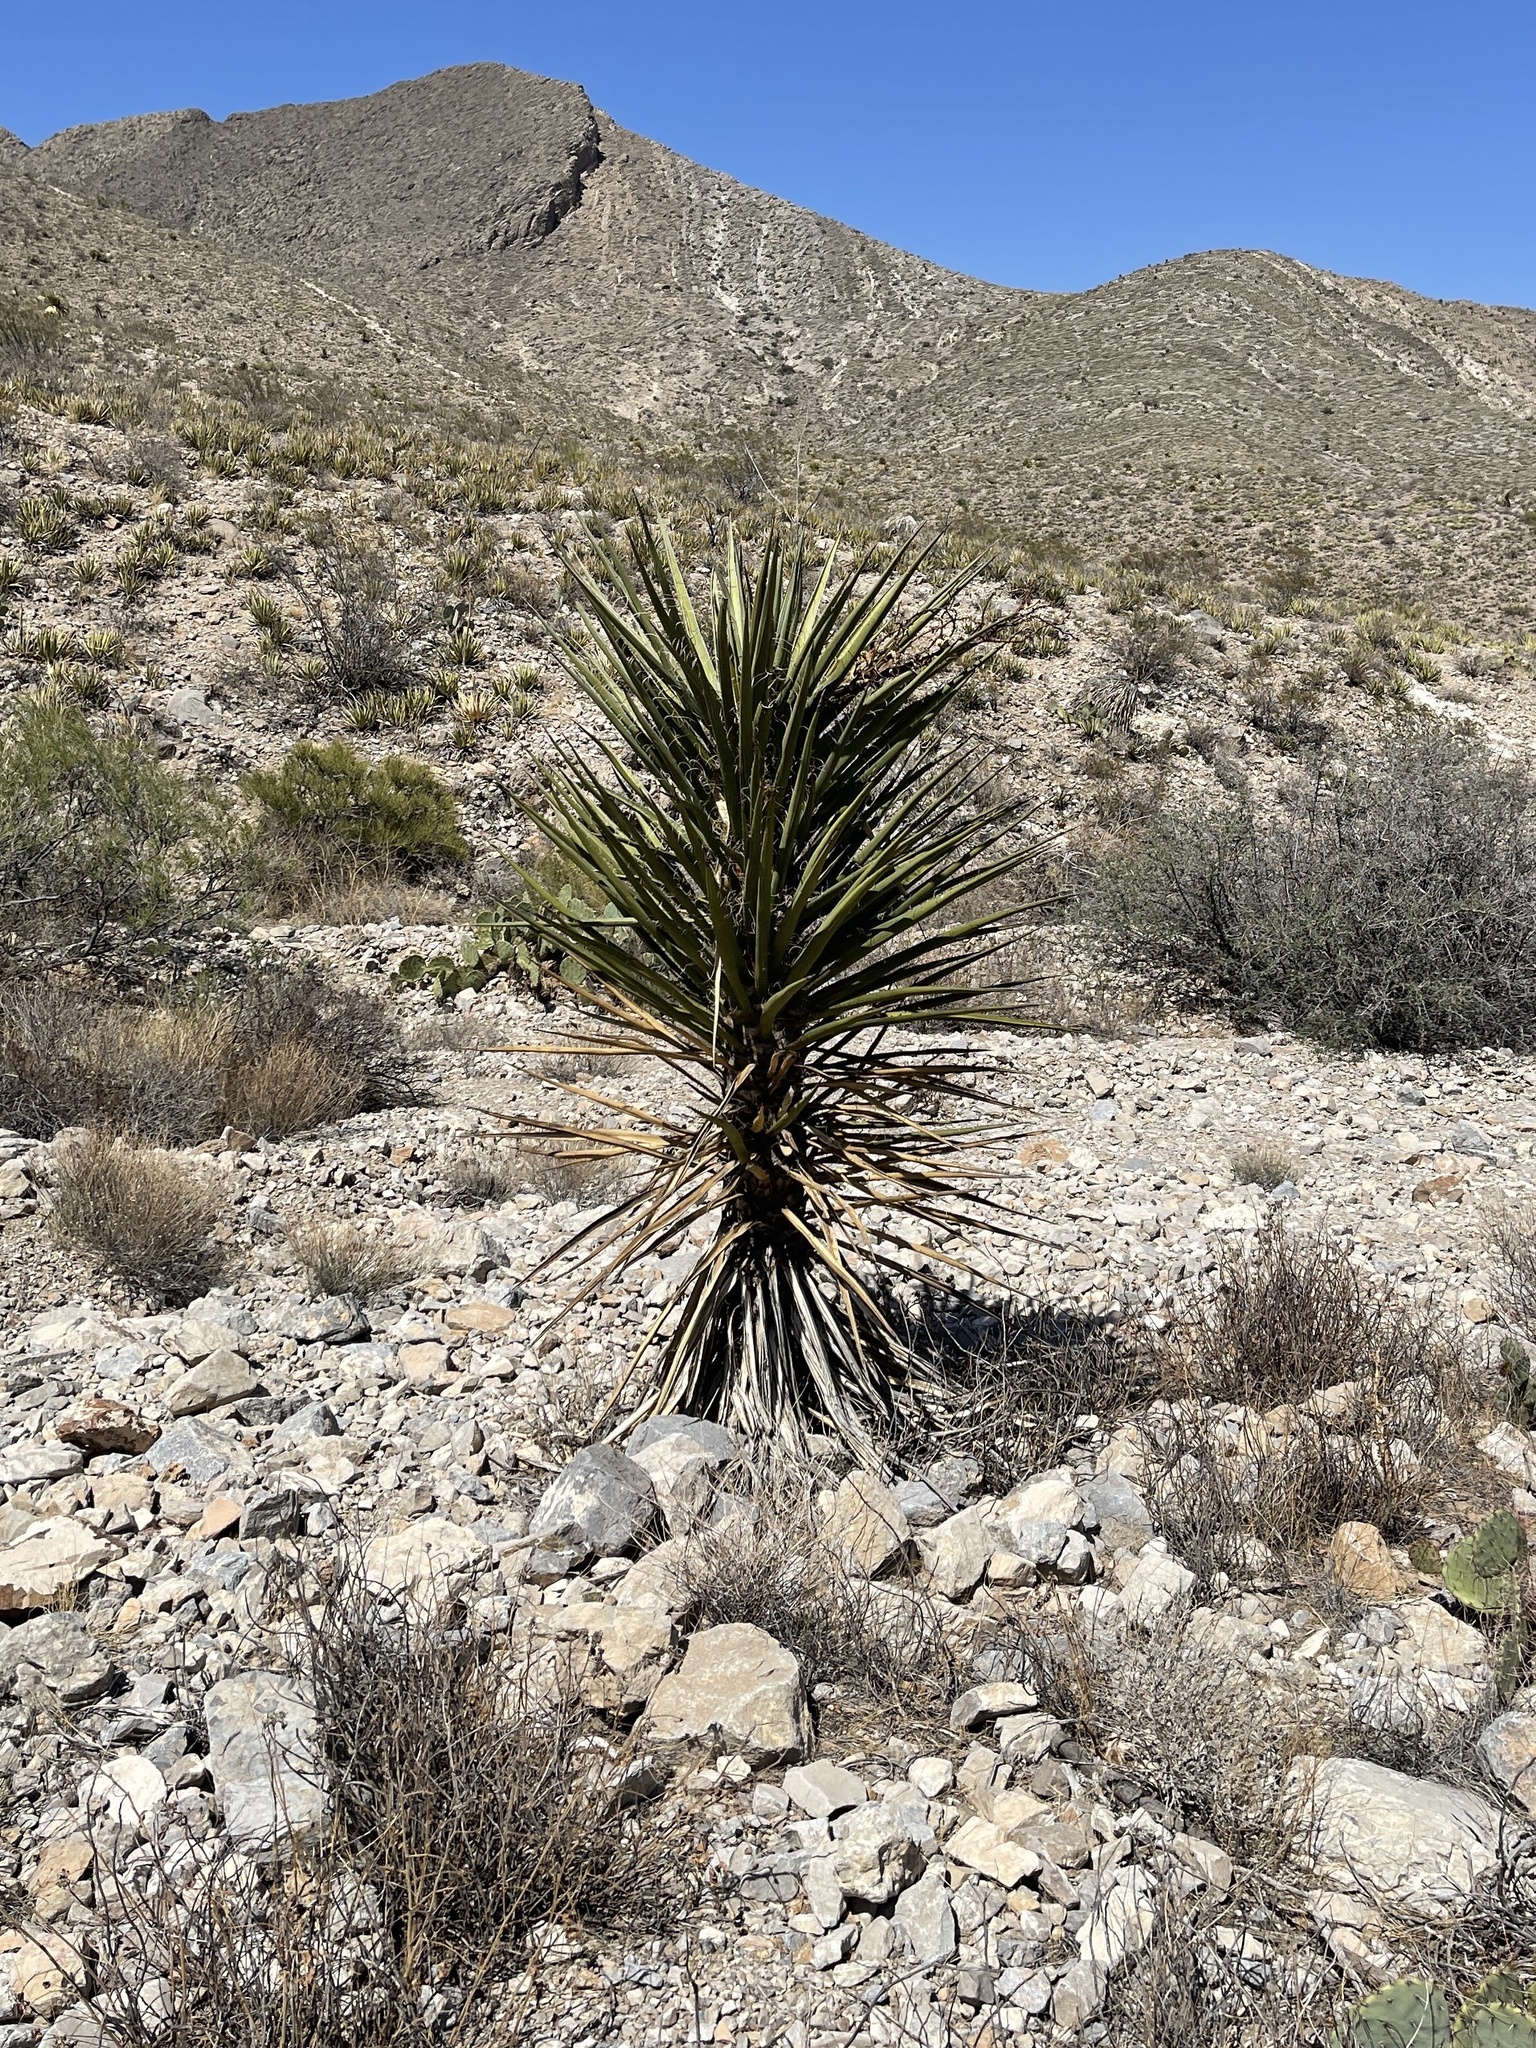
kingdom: Plantae
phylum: Tracheophyta
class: Liliopsida
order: Asparagales
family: Asparagaceae
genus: Yucca
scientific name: Yucca treculiana
